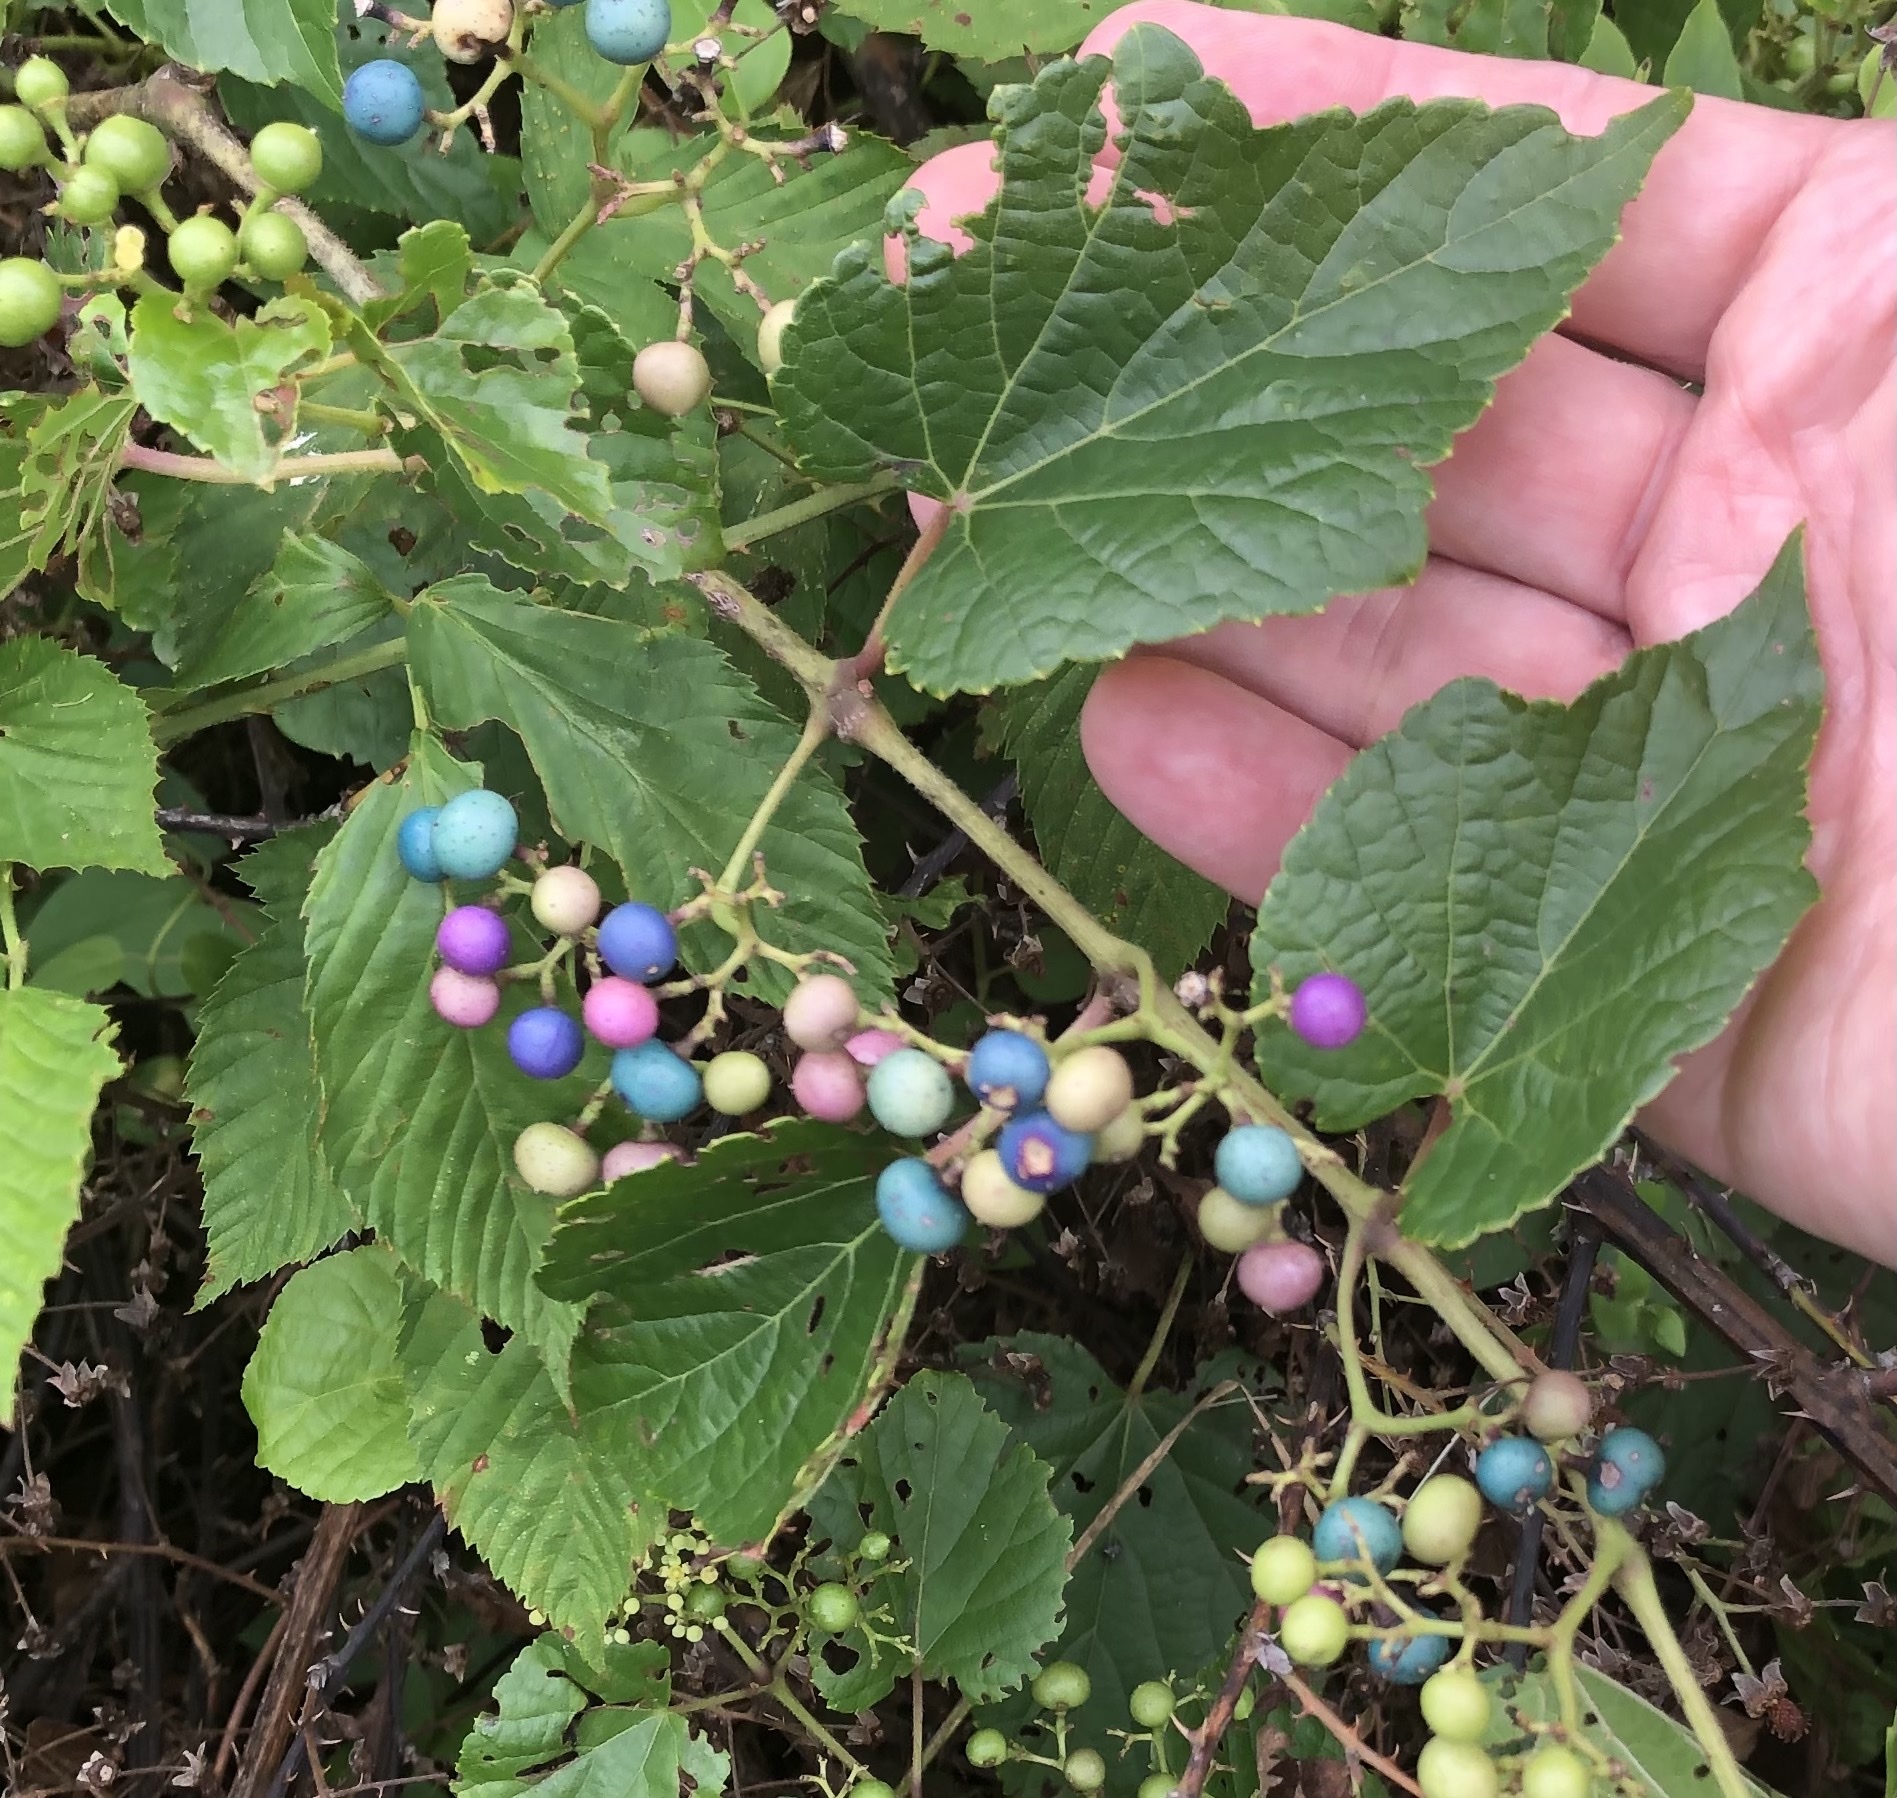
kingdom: Plantae
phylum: Tracheophyta
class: Magnoliopsida
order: Vitales
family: Vitaceae
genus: Ampelopsis
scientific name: Ampelopsis glandulosa
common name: Amur peppervine
